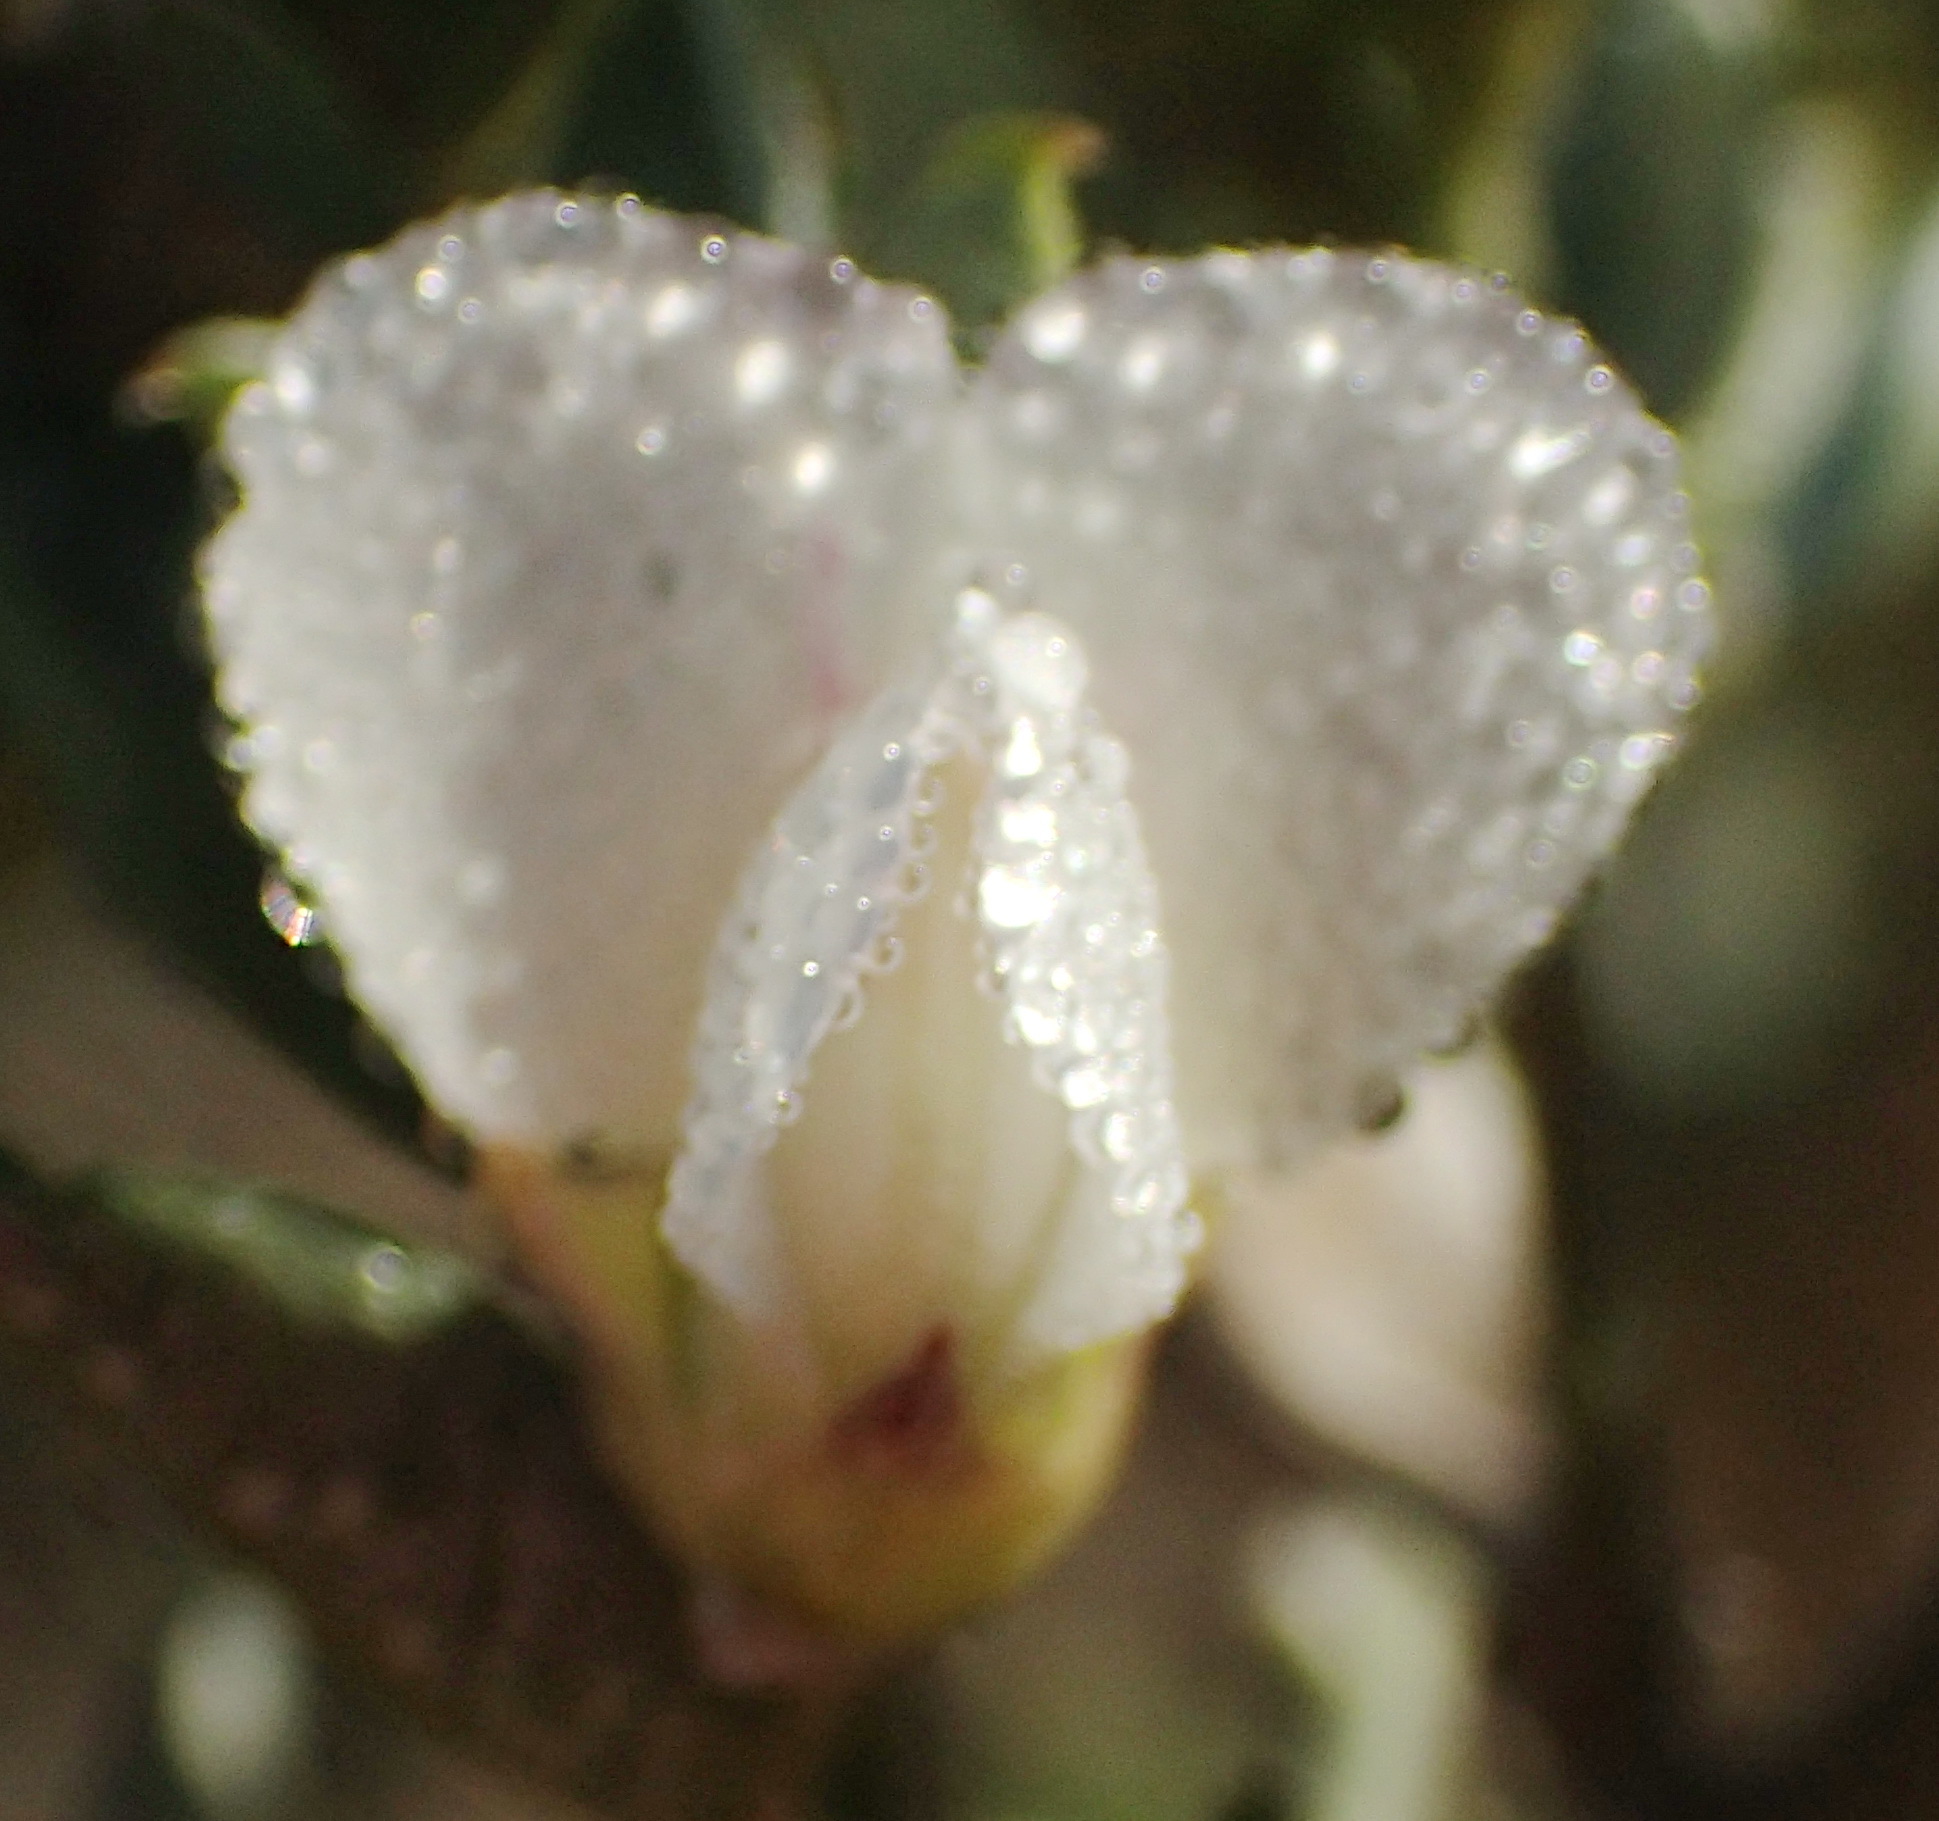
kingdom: Plantae
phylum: Tracheophyta
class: Magnoliopsida
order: Fabales
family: Fabaceae
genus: Podalyria
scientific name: Podalyria myrtillifolia
